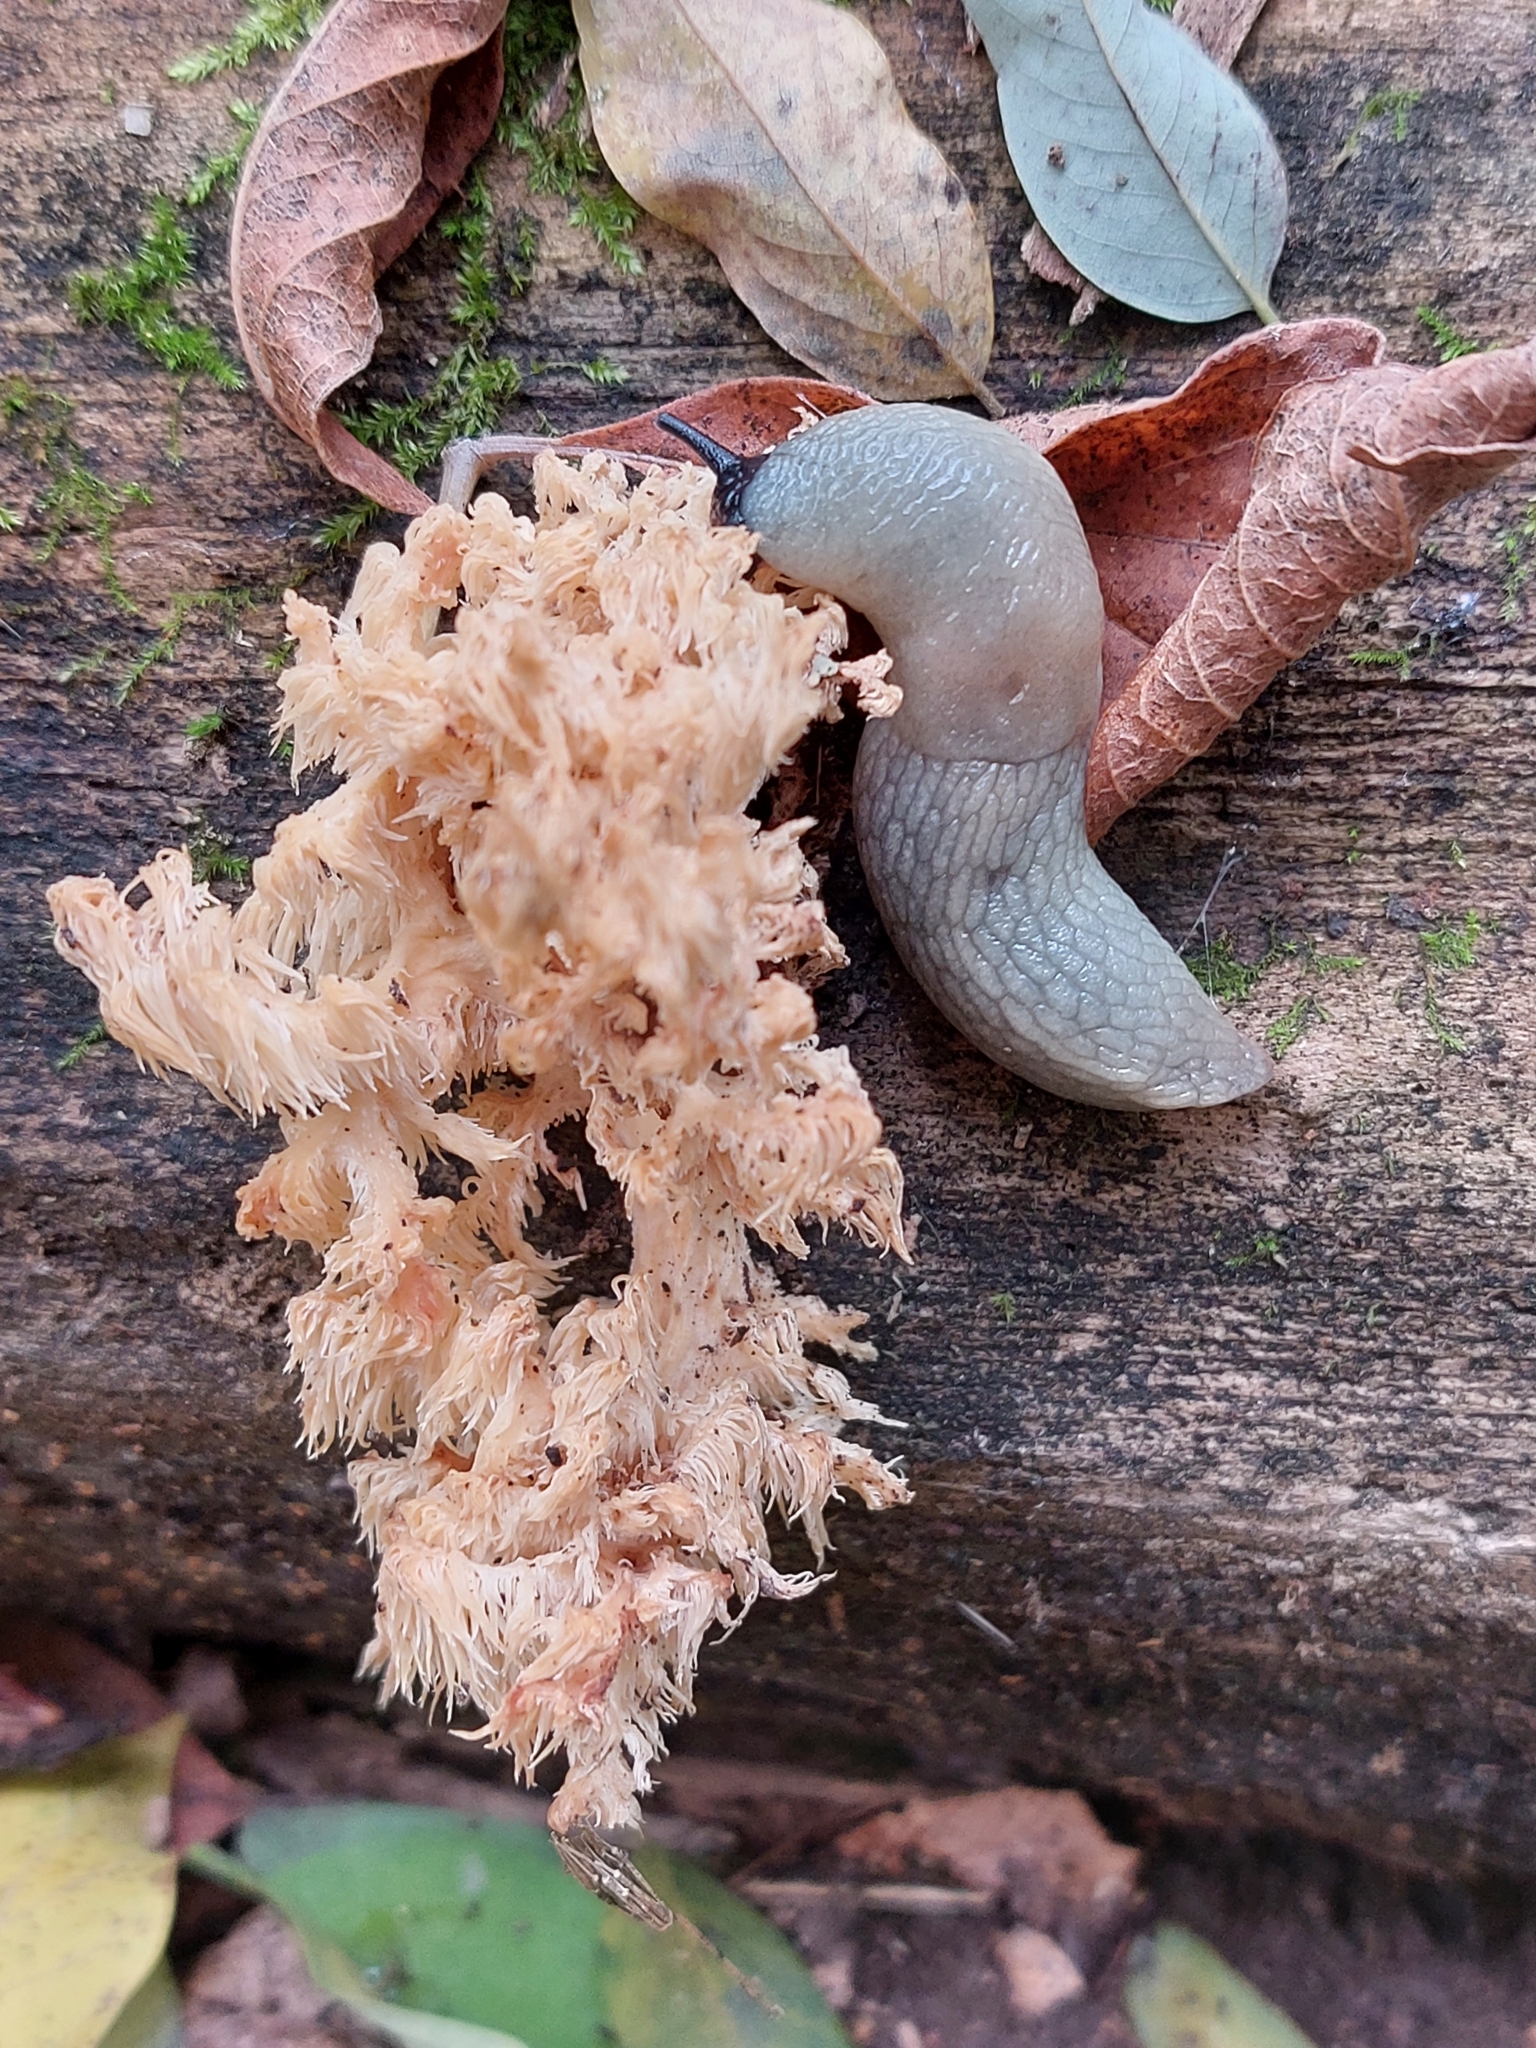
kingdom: Animalia
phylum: Mollusca
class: Gastropoda
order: Stylommatophora
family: Agriolimacidae
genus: Krynickillus
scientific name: Krynickillus melanocephalus
